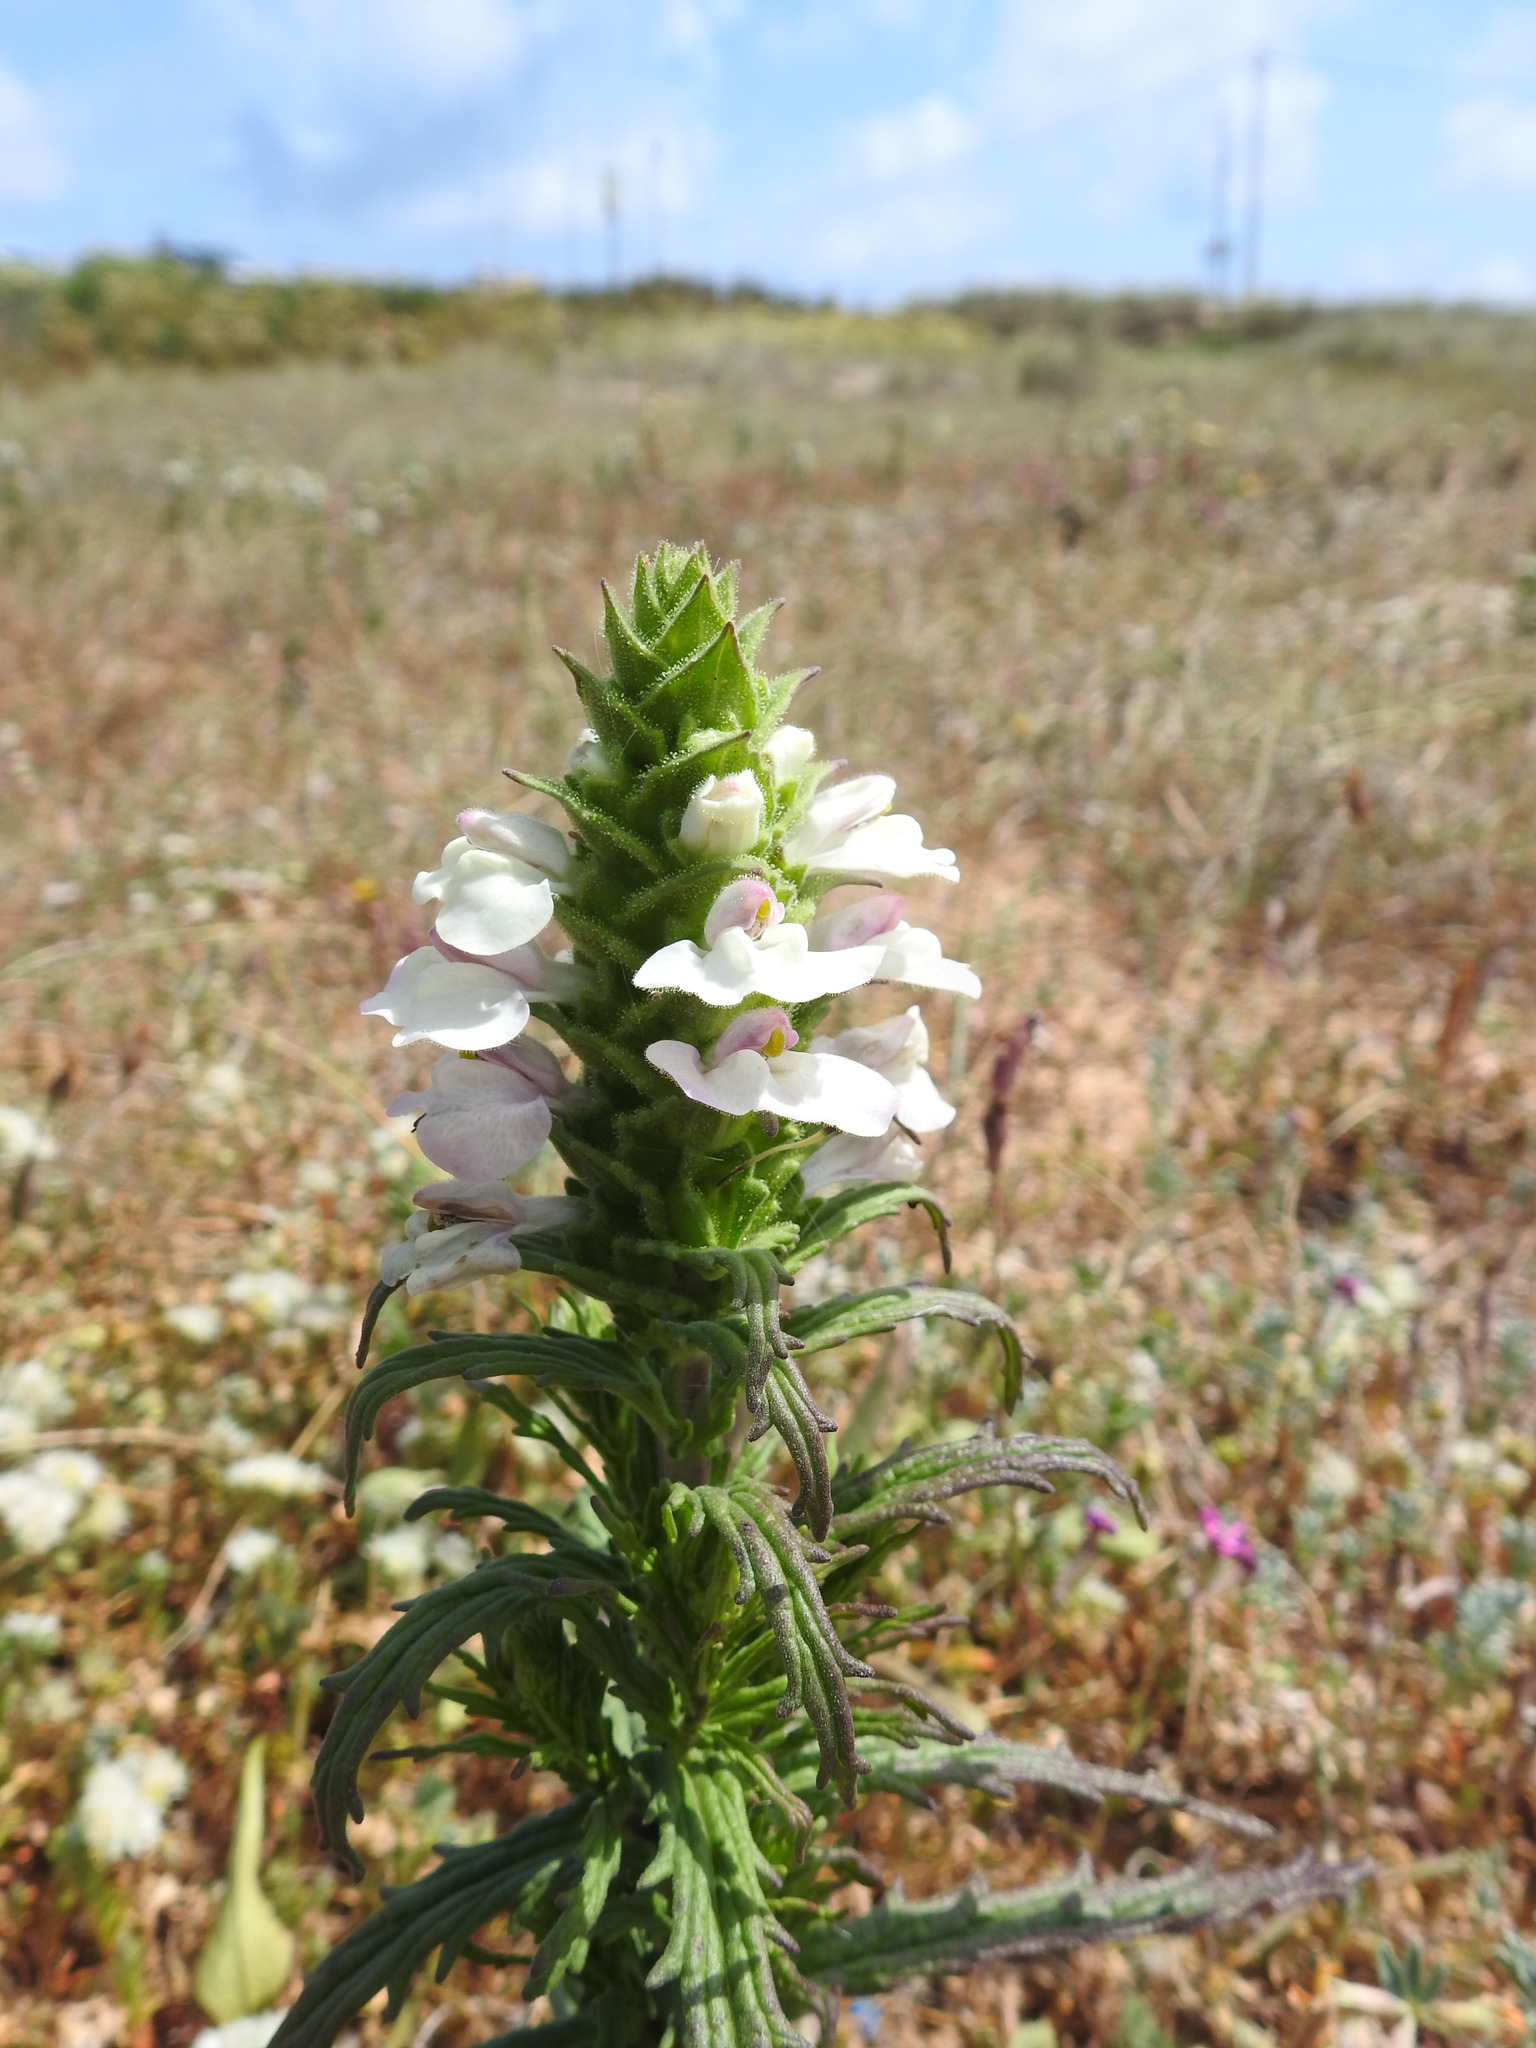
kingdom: Plantae
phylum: Tracheophyta
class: Magnoliopsida
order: Lamiales
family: Orobanchaceae
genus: Bellardia
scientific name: Bellardia trixago
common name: Mediterranean lineseed
